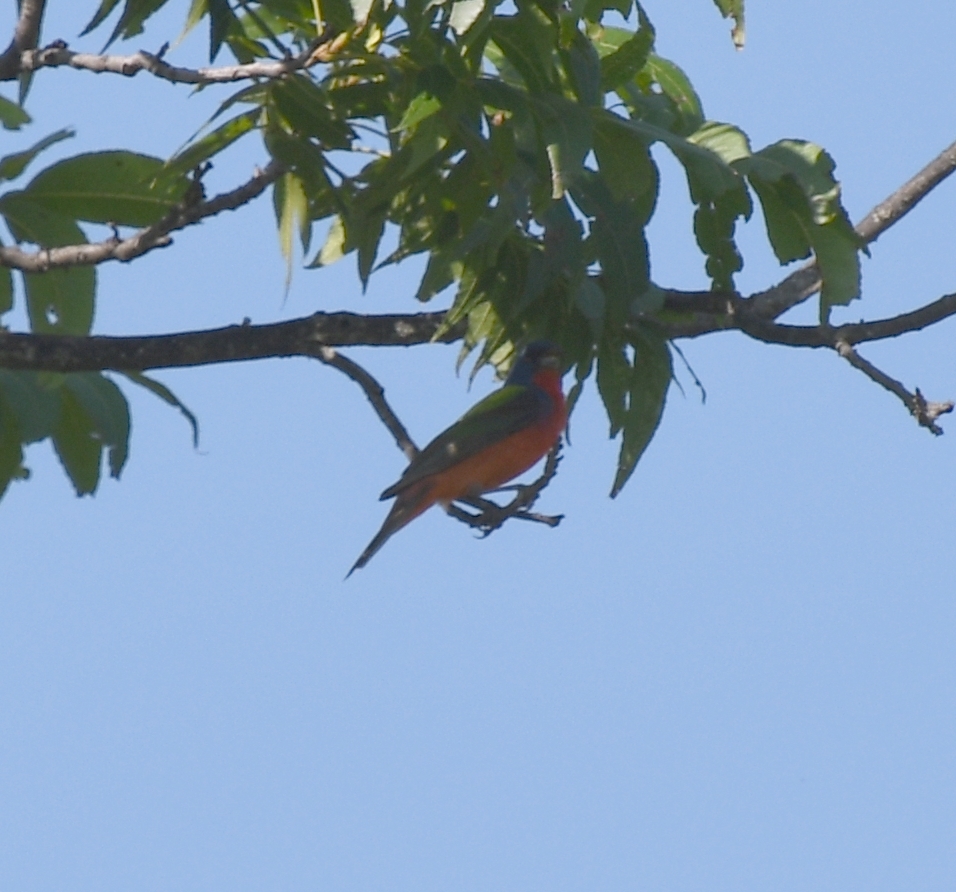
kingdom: Animalia
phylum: Chordata
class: Aves
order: Passeriformes
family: Cardinalidae
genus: Passerina
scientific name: Passerina ciris
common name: Painted bunting
